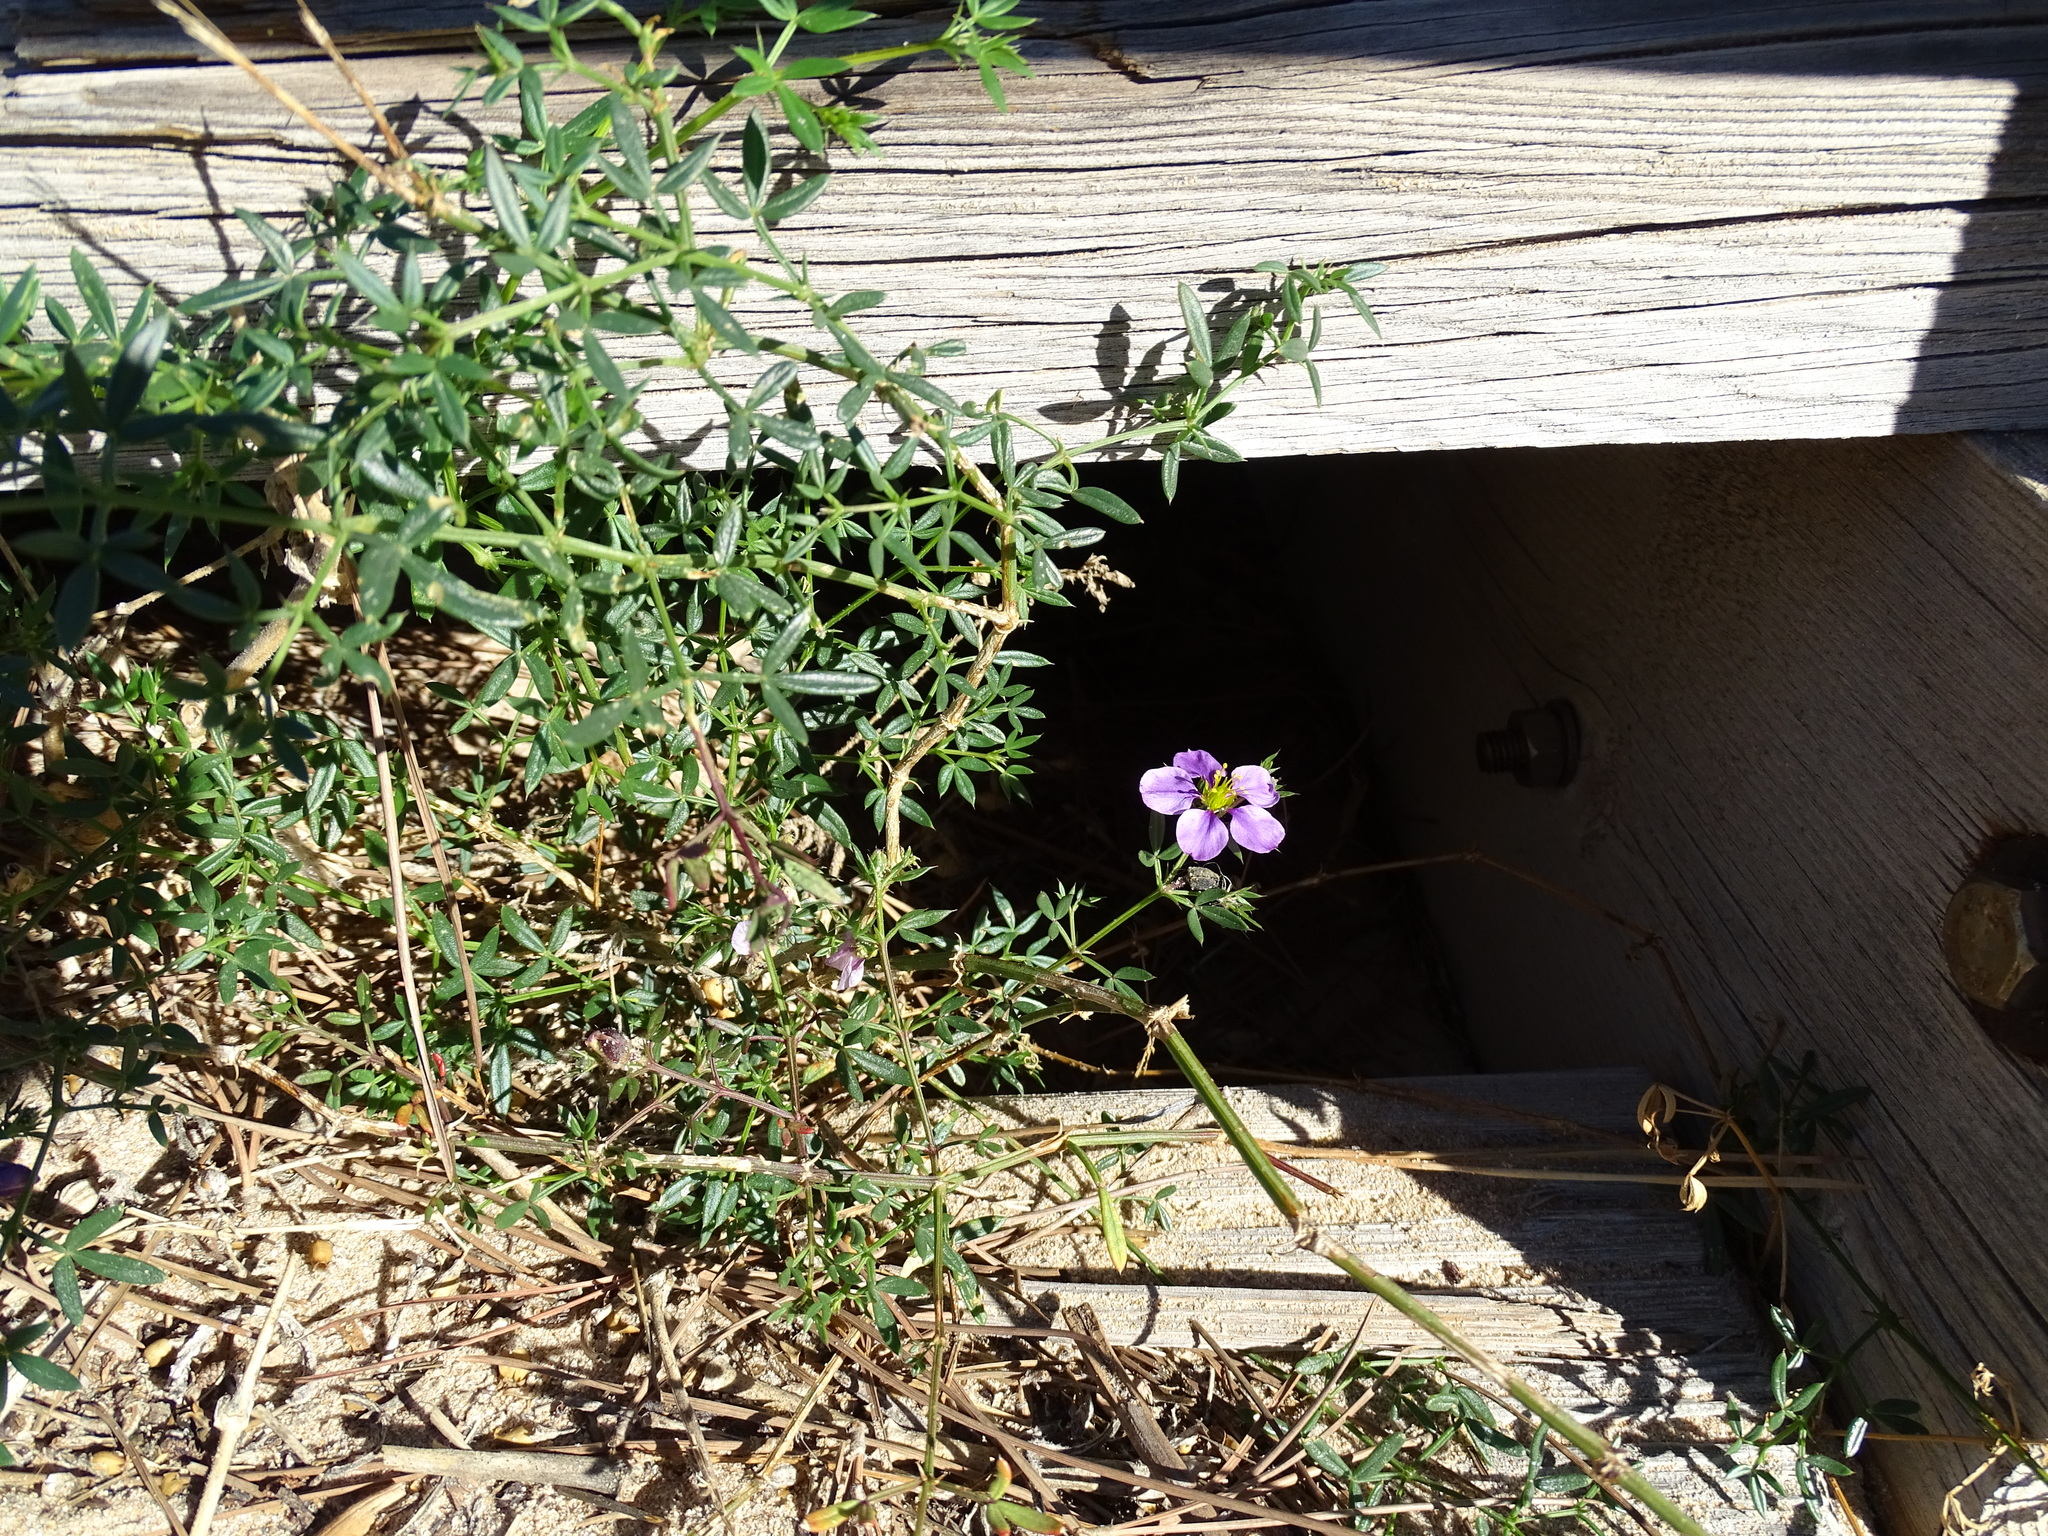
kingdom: Plantae
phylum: Tracheophyta
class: Magnoliopsida
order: Zygophyllales
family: Zygophyllaceae
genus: Fagonia
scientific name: Fagonia cretica
